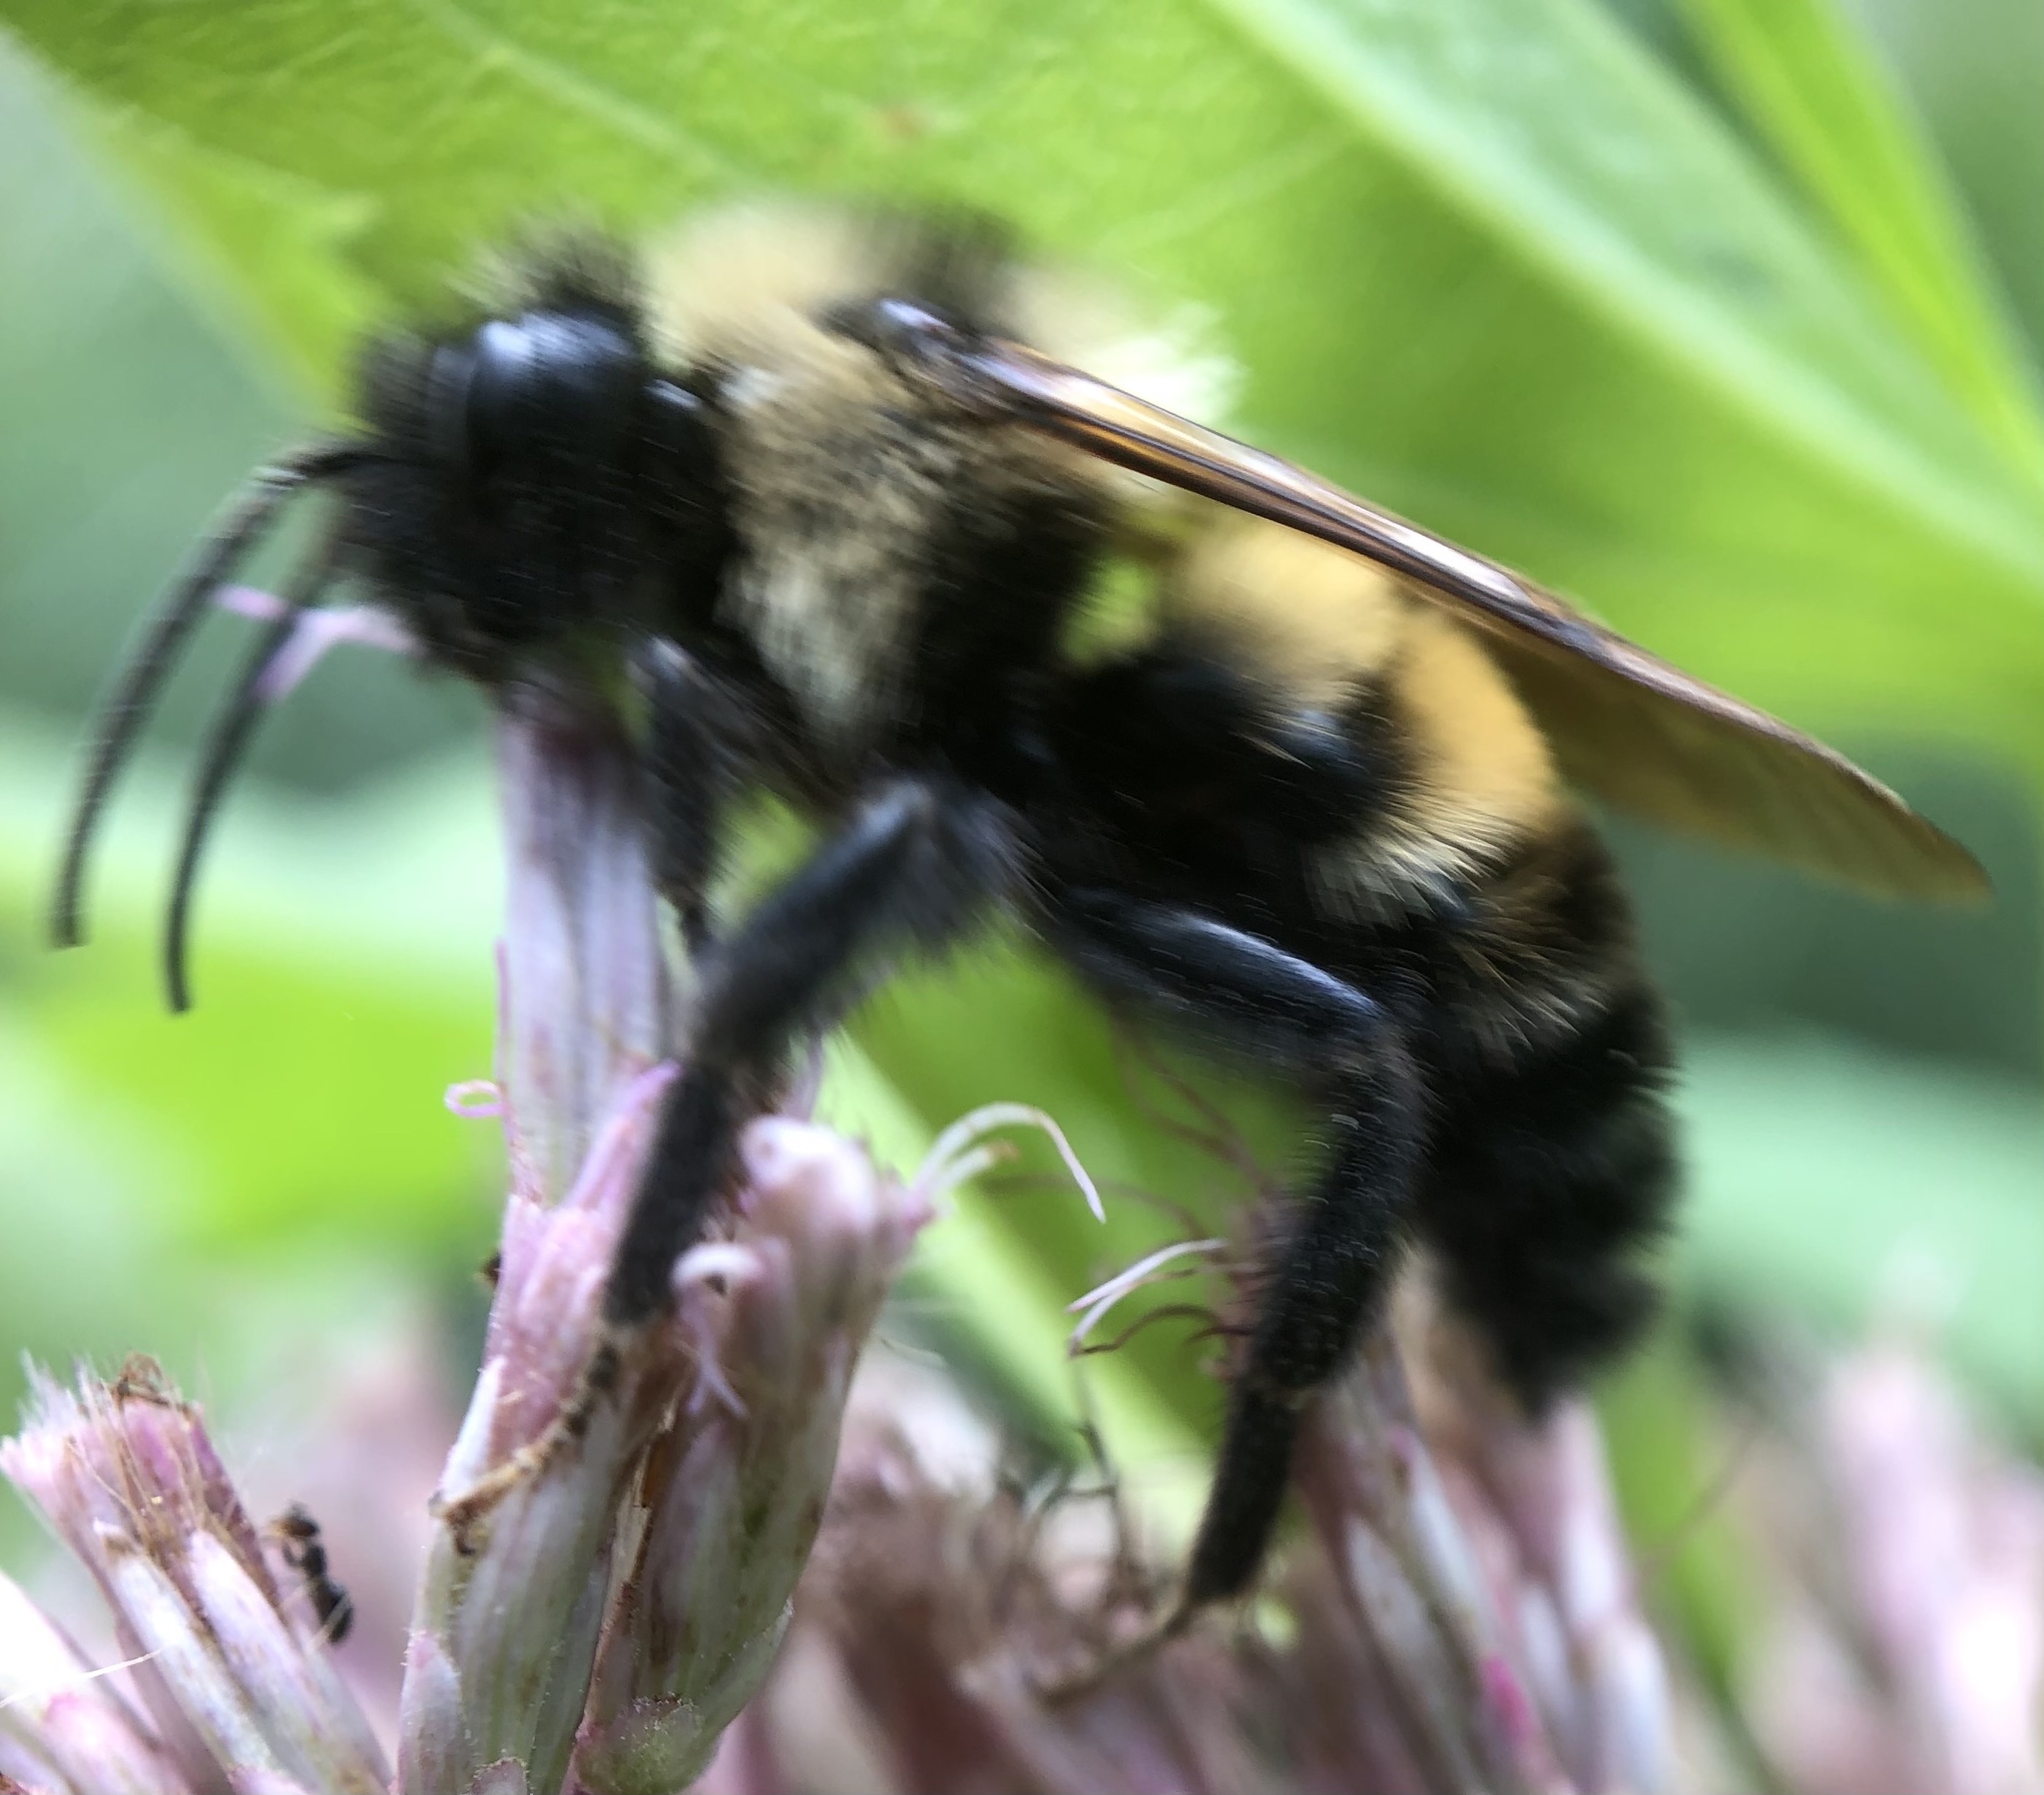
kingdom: Animalia
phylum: Arthropoda
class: Insecta
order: Hymenoptera
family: Apidae
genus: Bombus
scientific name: Bombus citrinus
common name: Lemon cuckoo bumble bee
